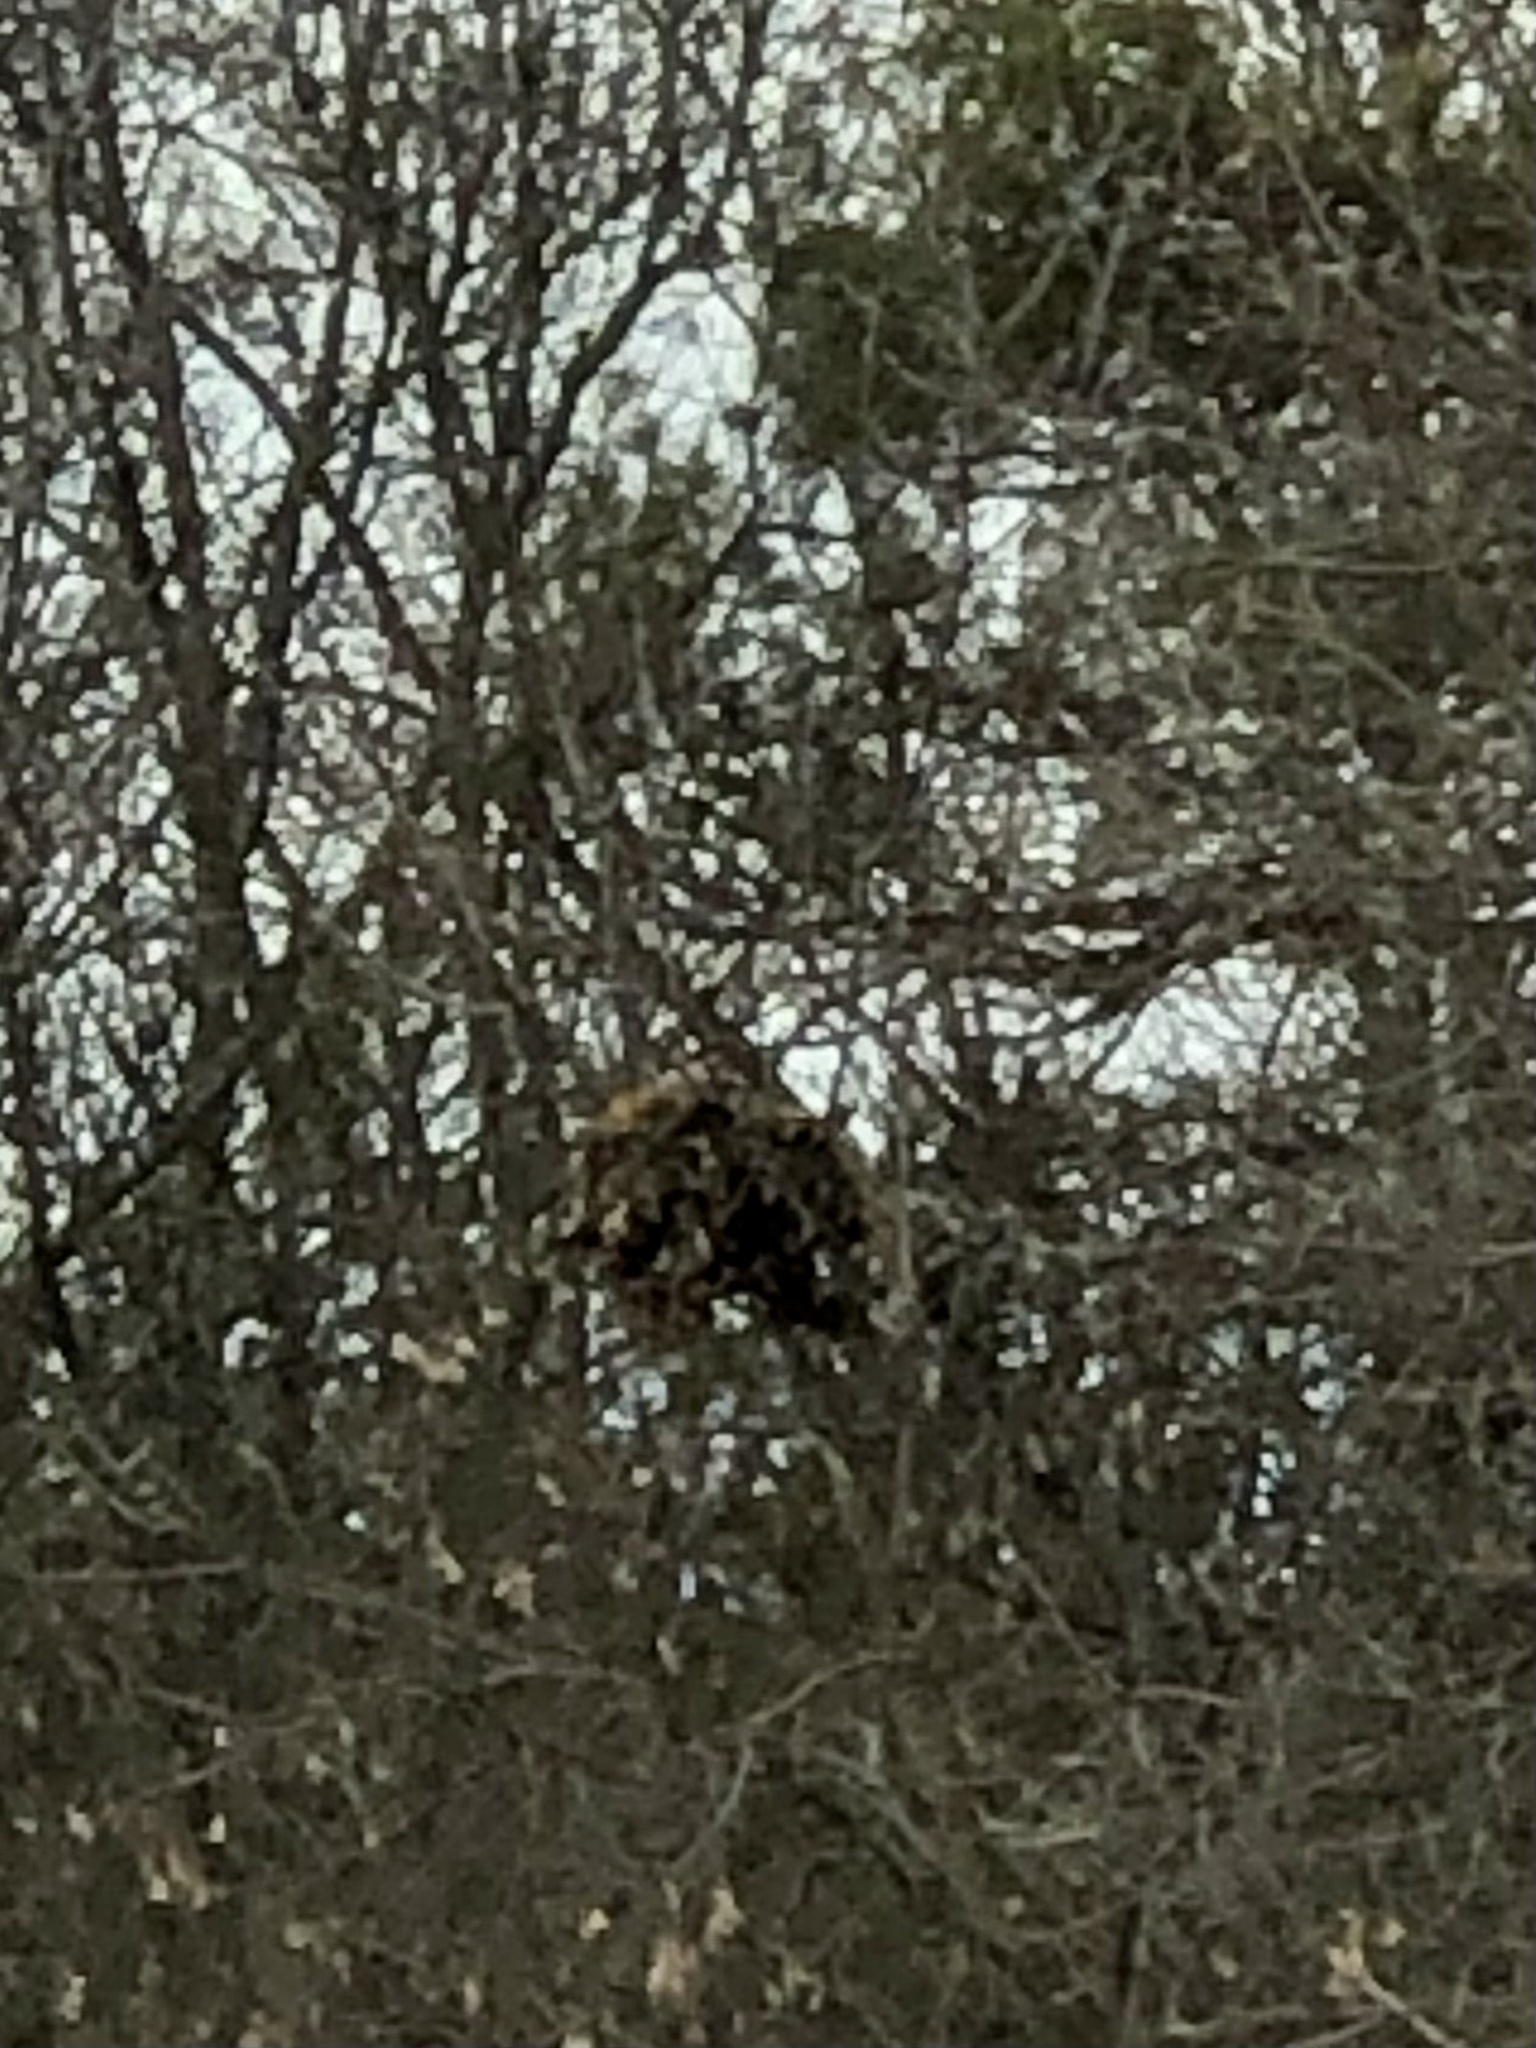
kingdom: Animalia
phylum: Chordata
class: Mammalia
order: Rodentia
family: Sciuridae
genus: Sciurus
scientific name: Sciurus carolinensis
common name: Eastern gray squirrel
